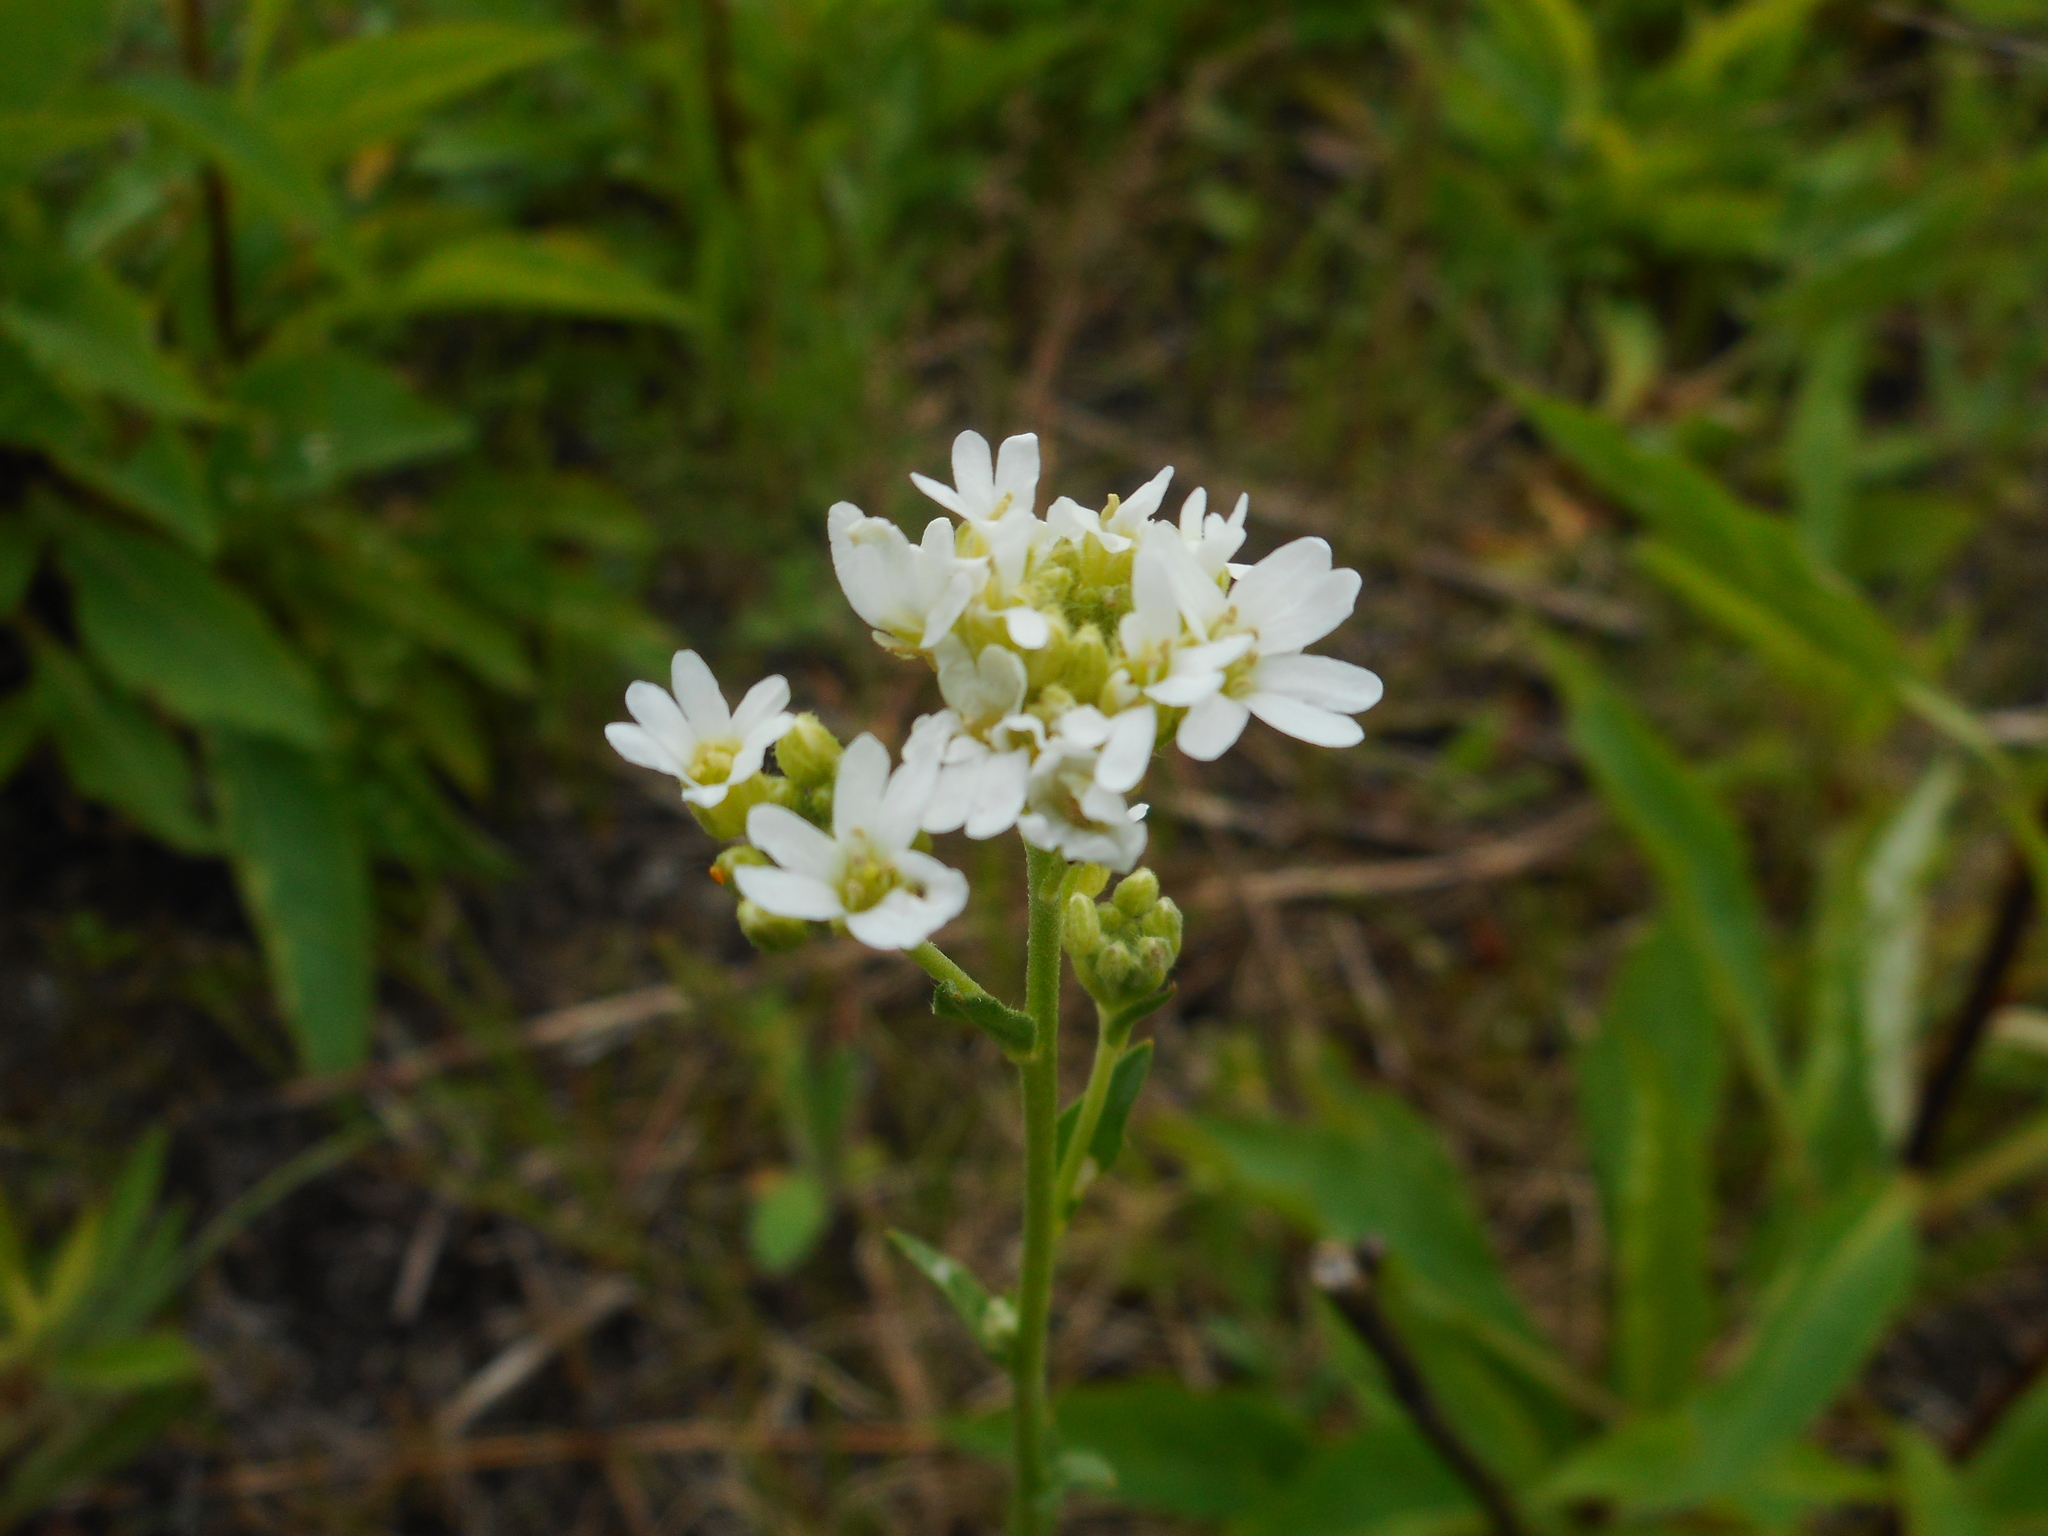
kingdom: Plantae
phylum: Tracheophyta
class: Magnoliopsida
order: Brassicales
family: Brassicaceae
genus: Berteroa
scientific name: Berteroa incana
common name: Hoary alison
